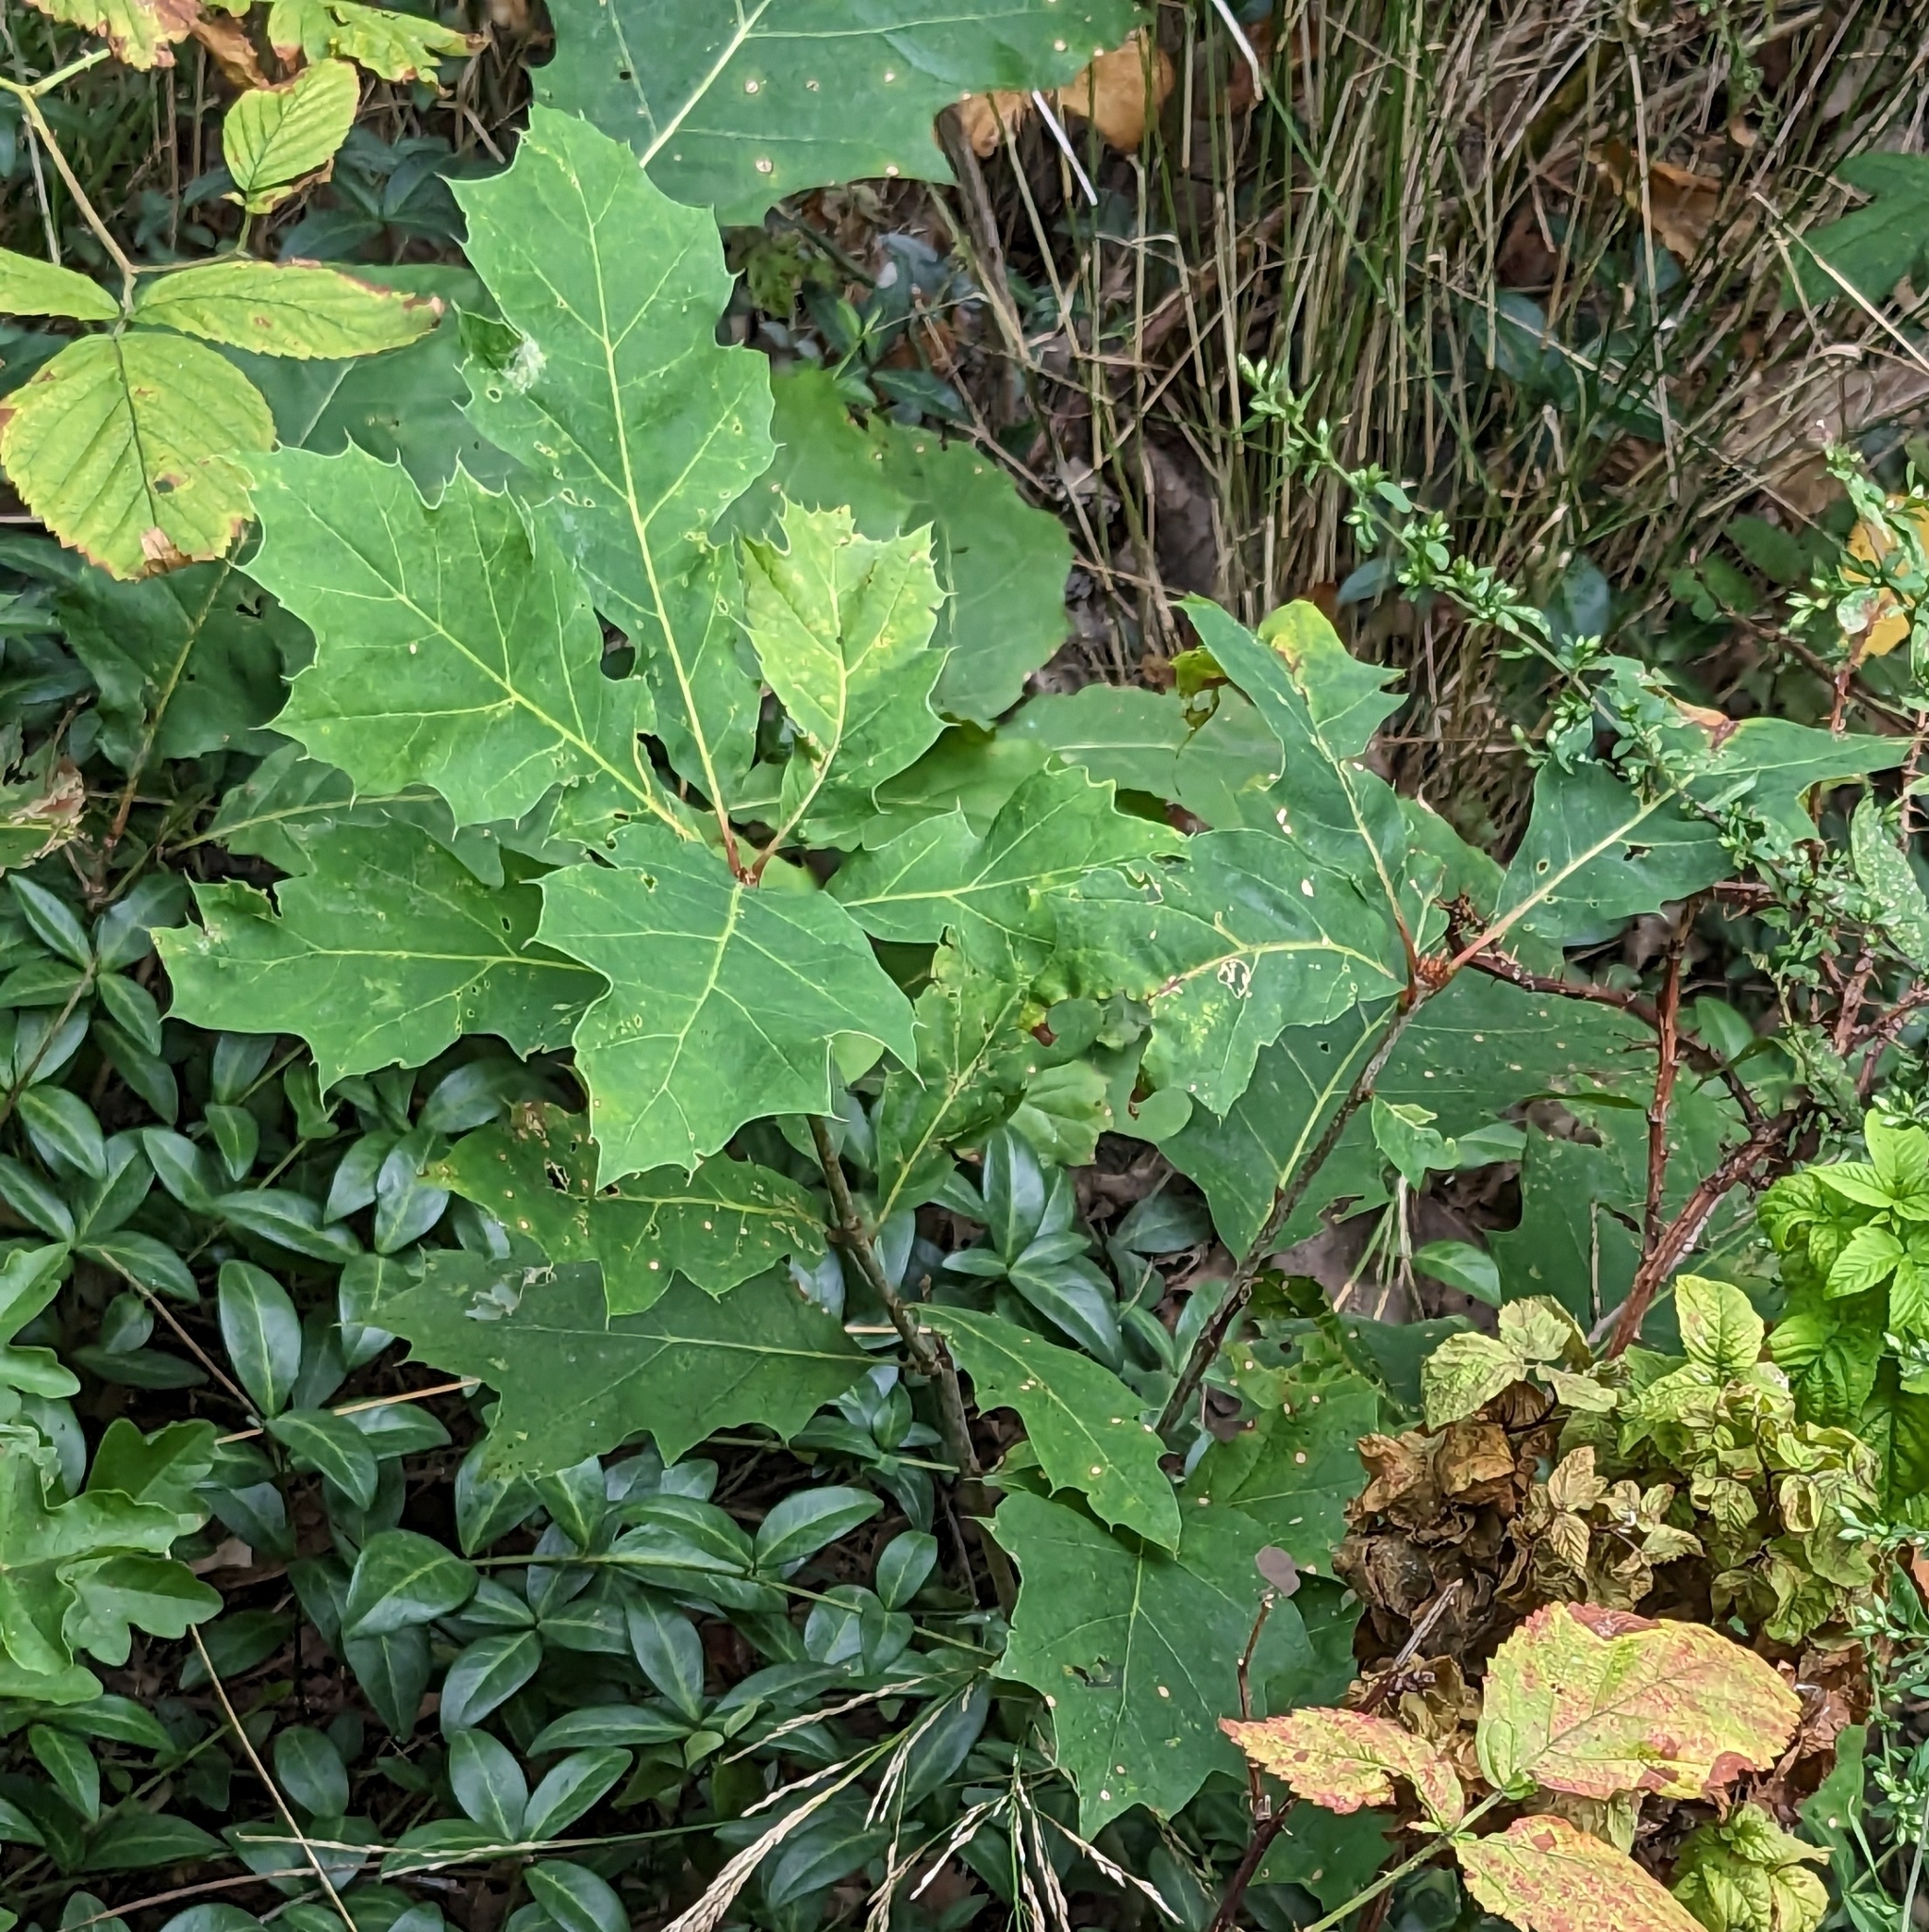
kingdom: Plantae
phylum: Tracheophyta
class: Magnoliopsida
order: Fagales
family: Fagaceae
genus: Quercus
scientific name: Quercus rubra
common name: Red oak
